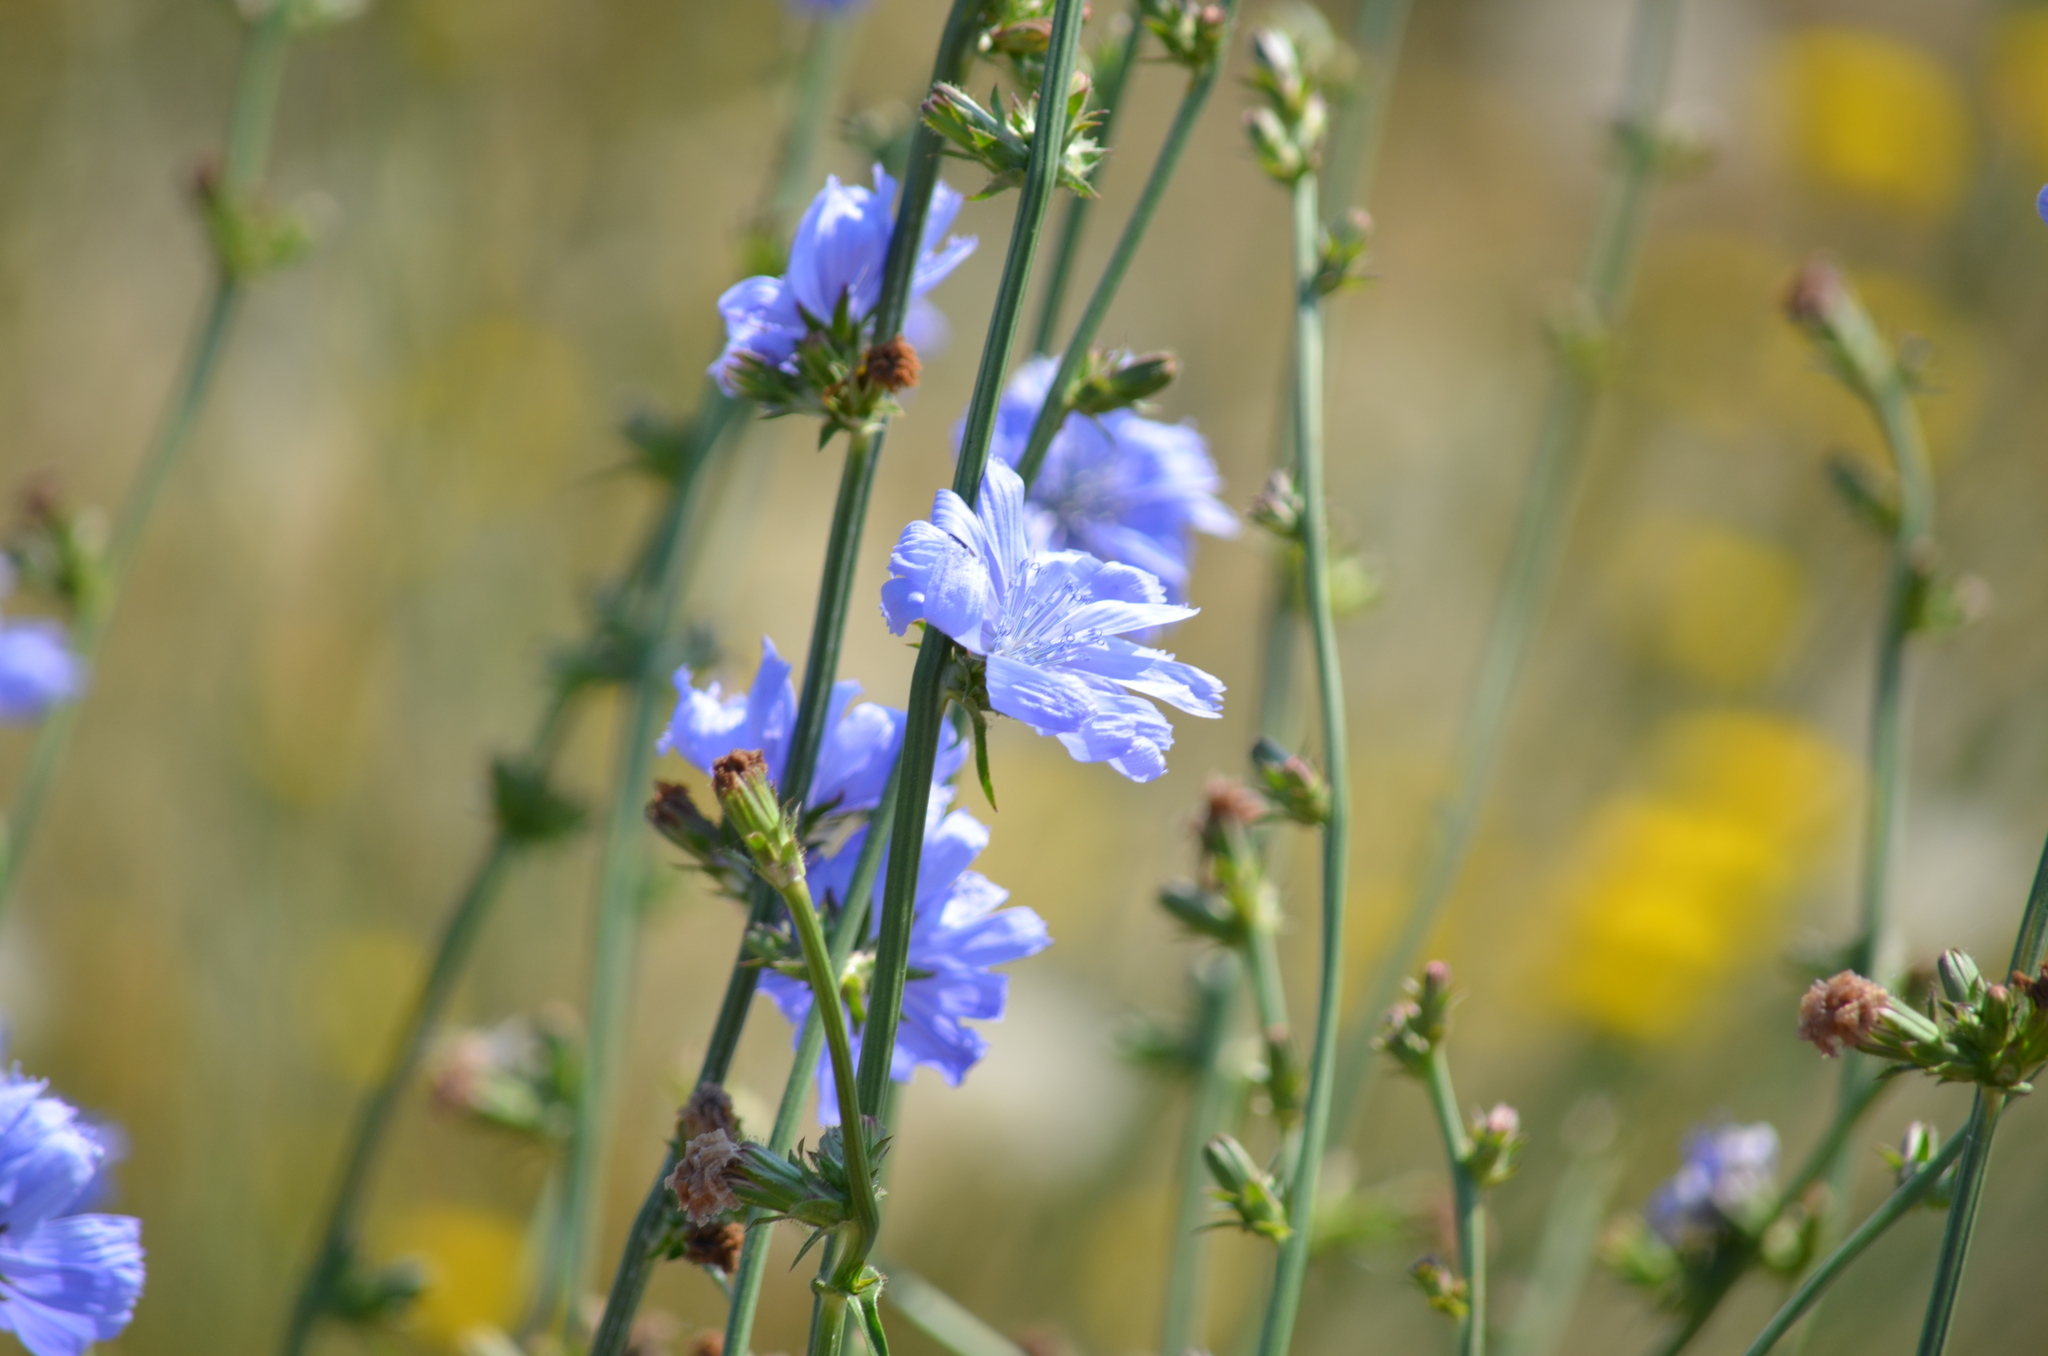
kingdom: Plantae
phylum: Tracheophyta
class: Magnoliopsida
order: Asterales
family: Asteraceae
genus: Cichorium
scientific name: Cichorium intybus
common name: Chicory
